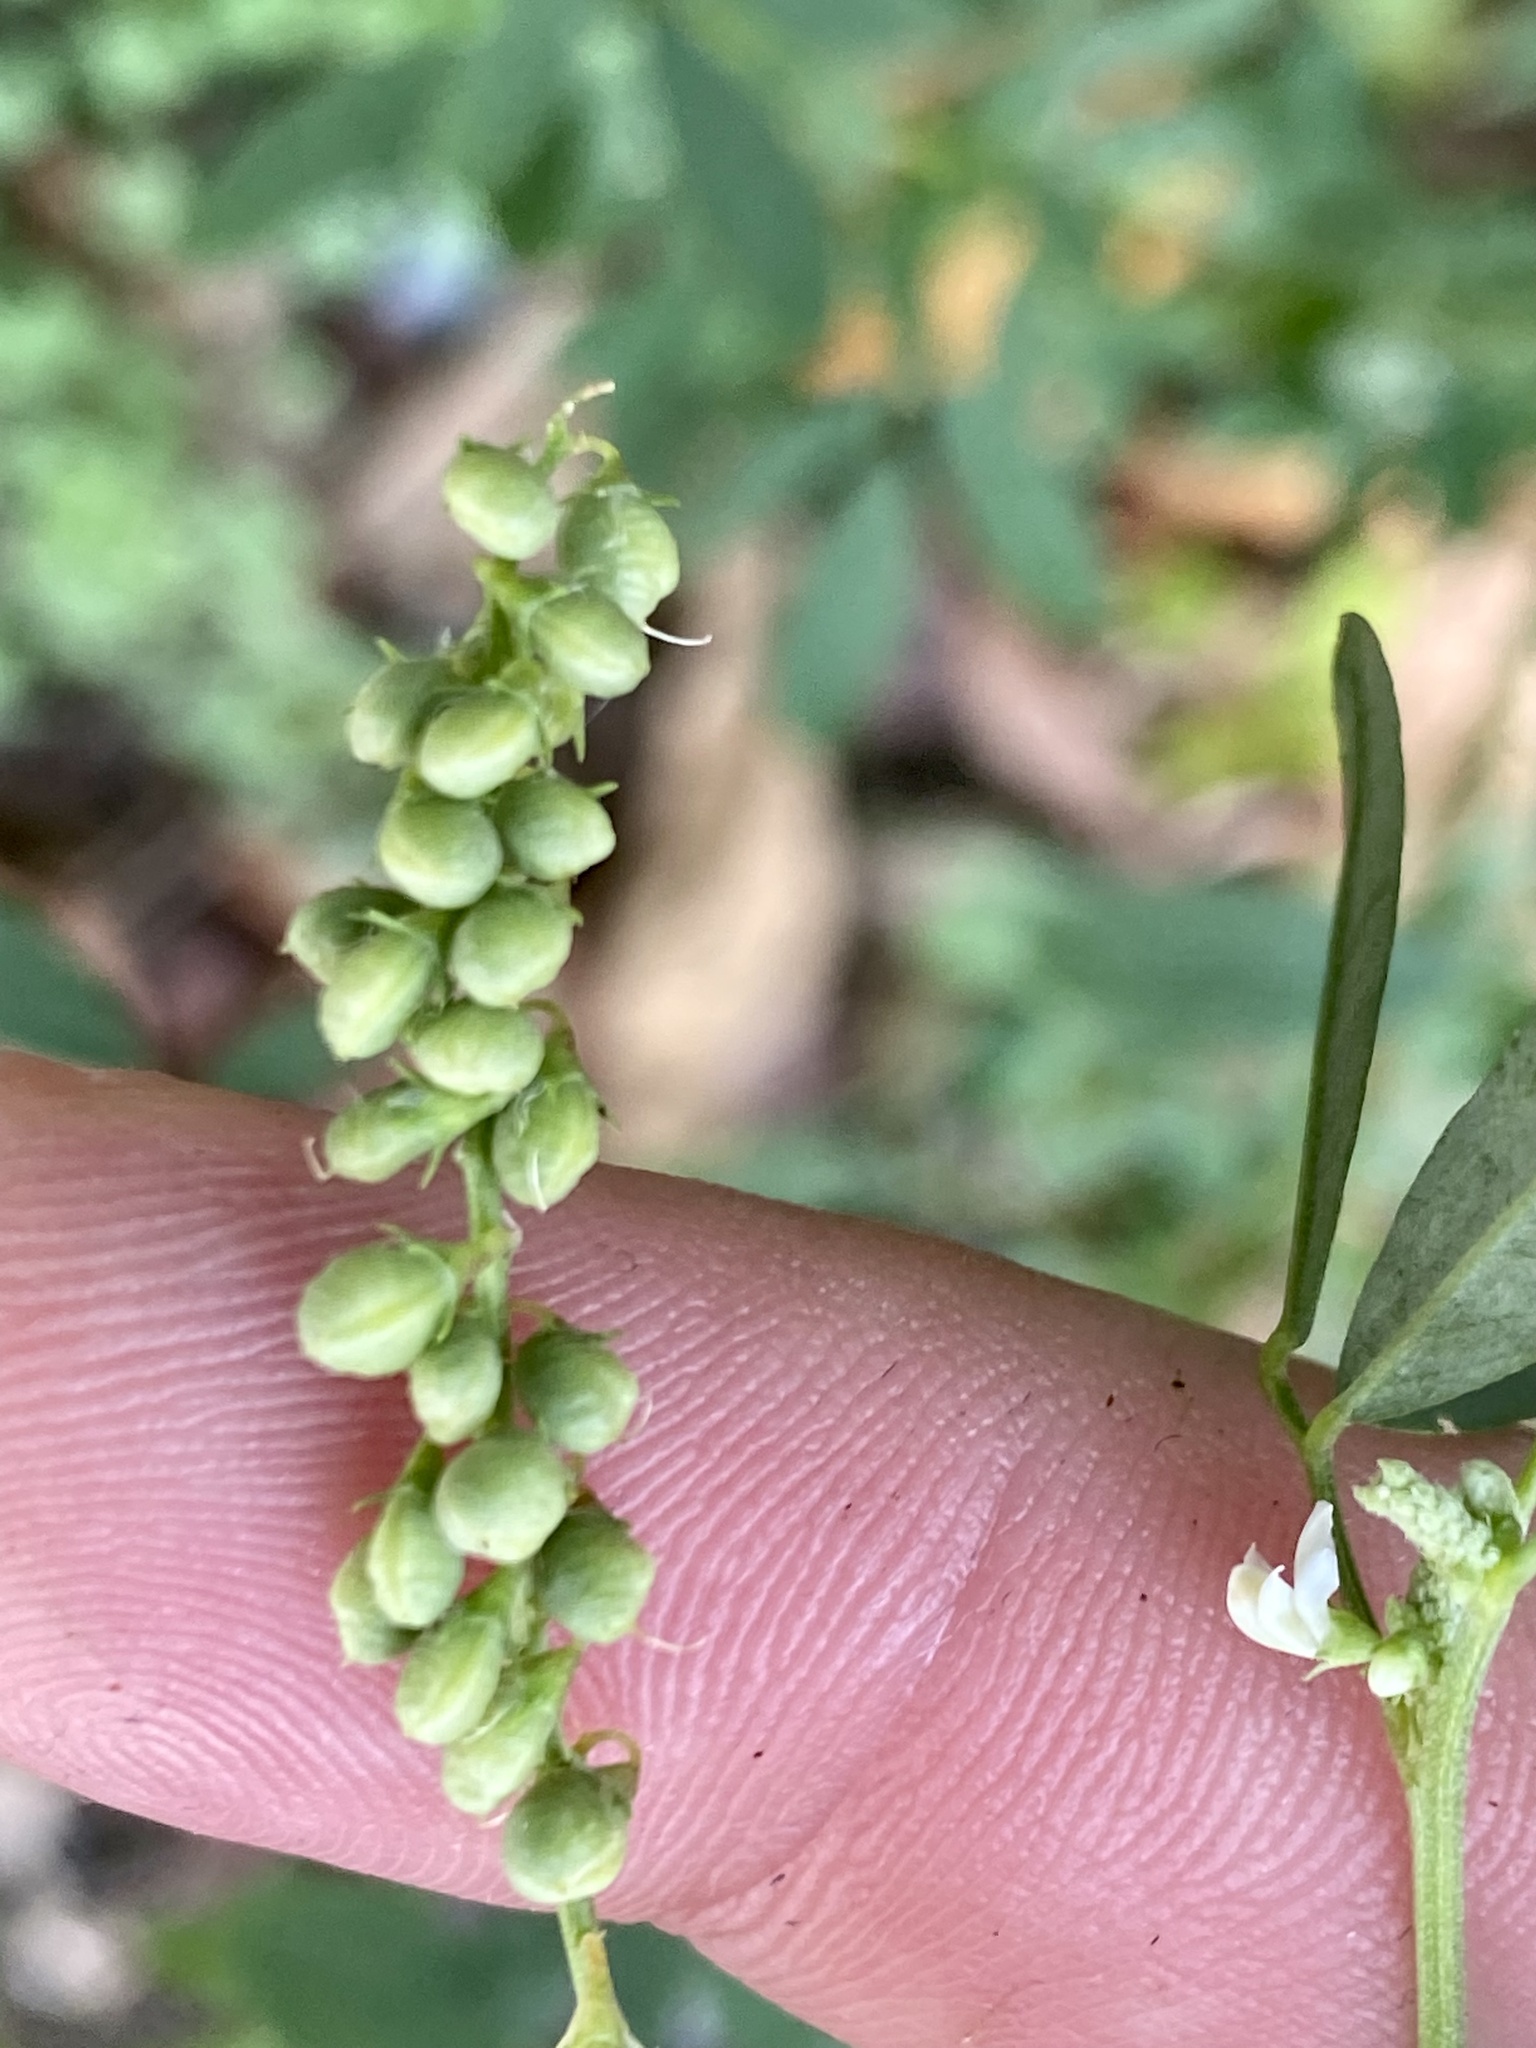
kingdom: Plantae
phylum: Tracheophyta
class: Magnoliopsida
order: Fabales
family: Fabaceae
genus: Melilotus
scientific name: Melilotus albus
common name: White melilot
